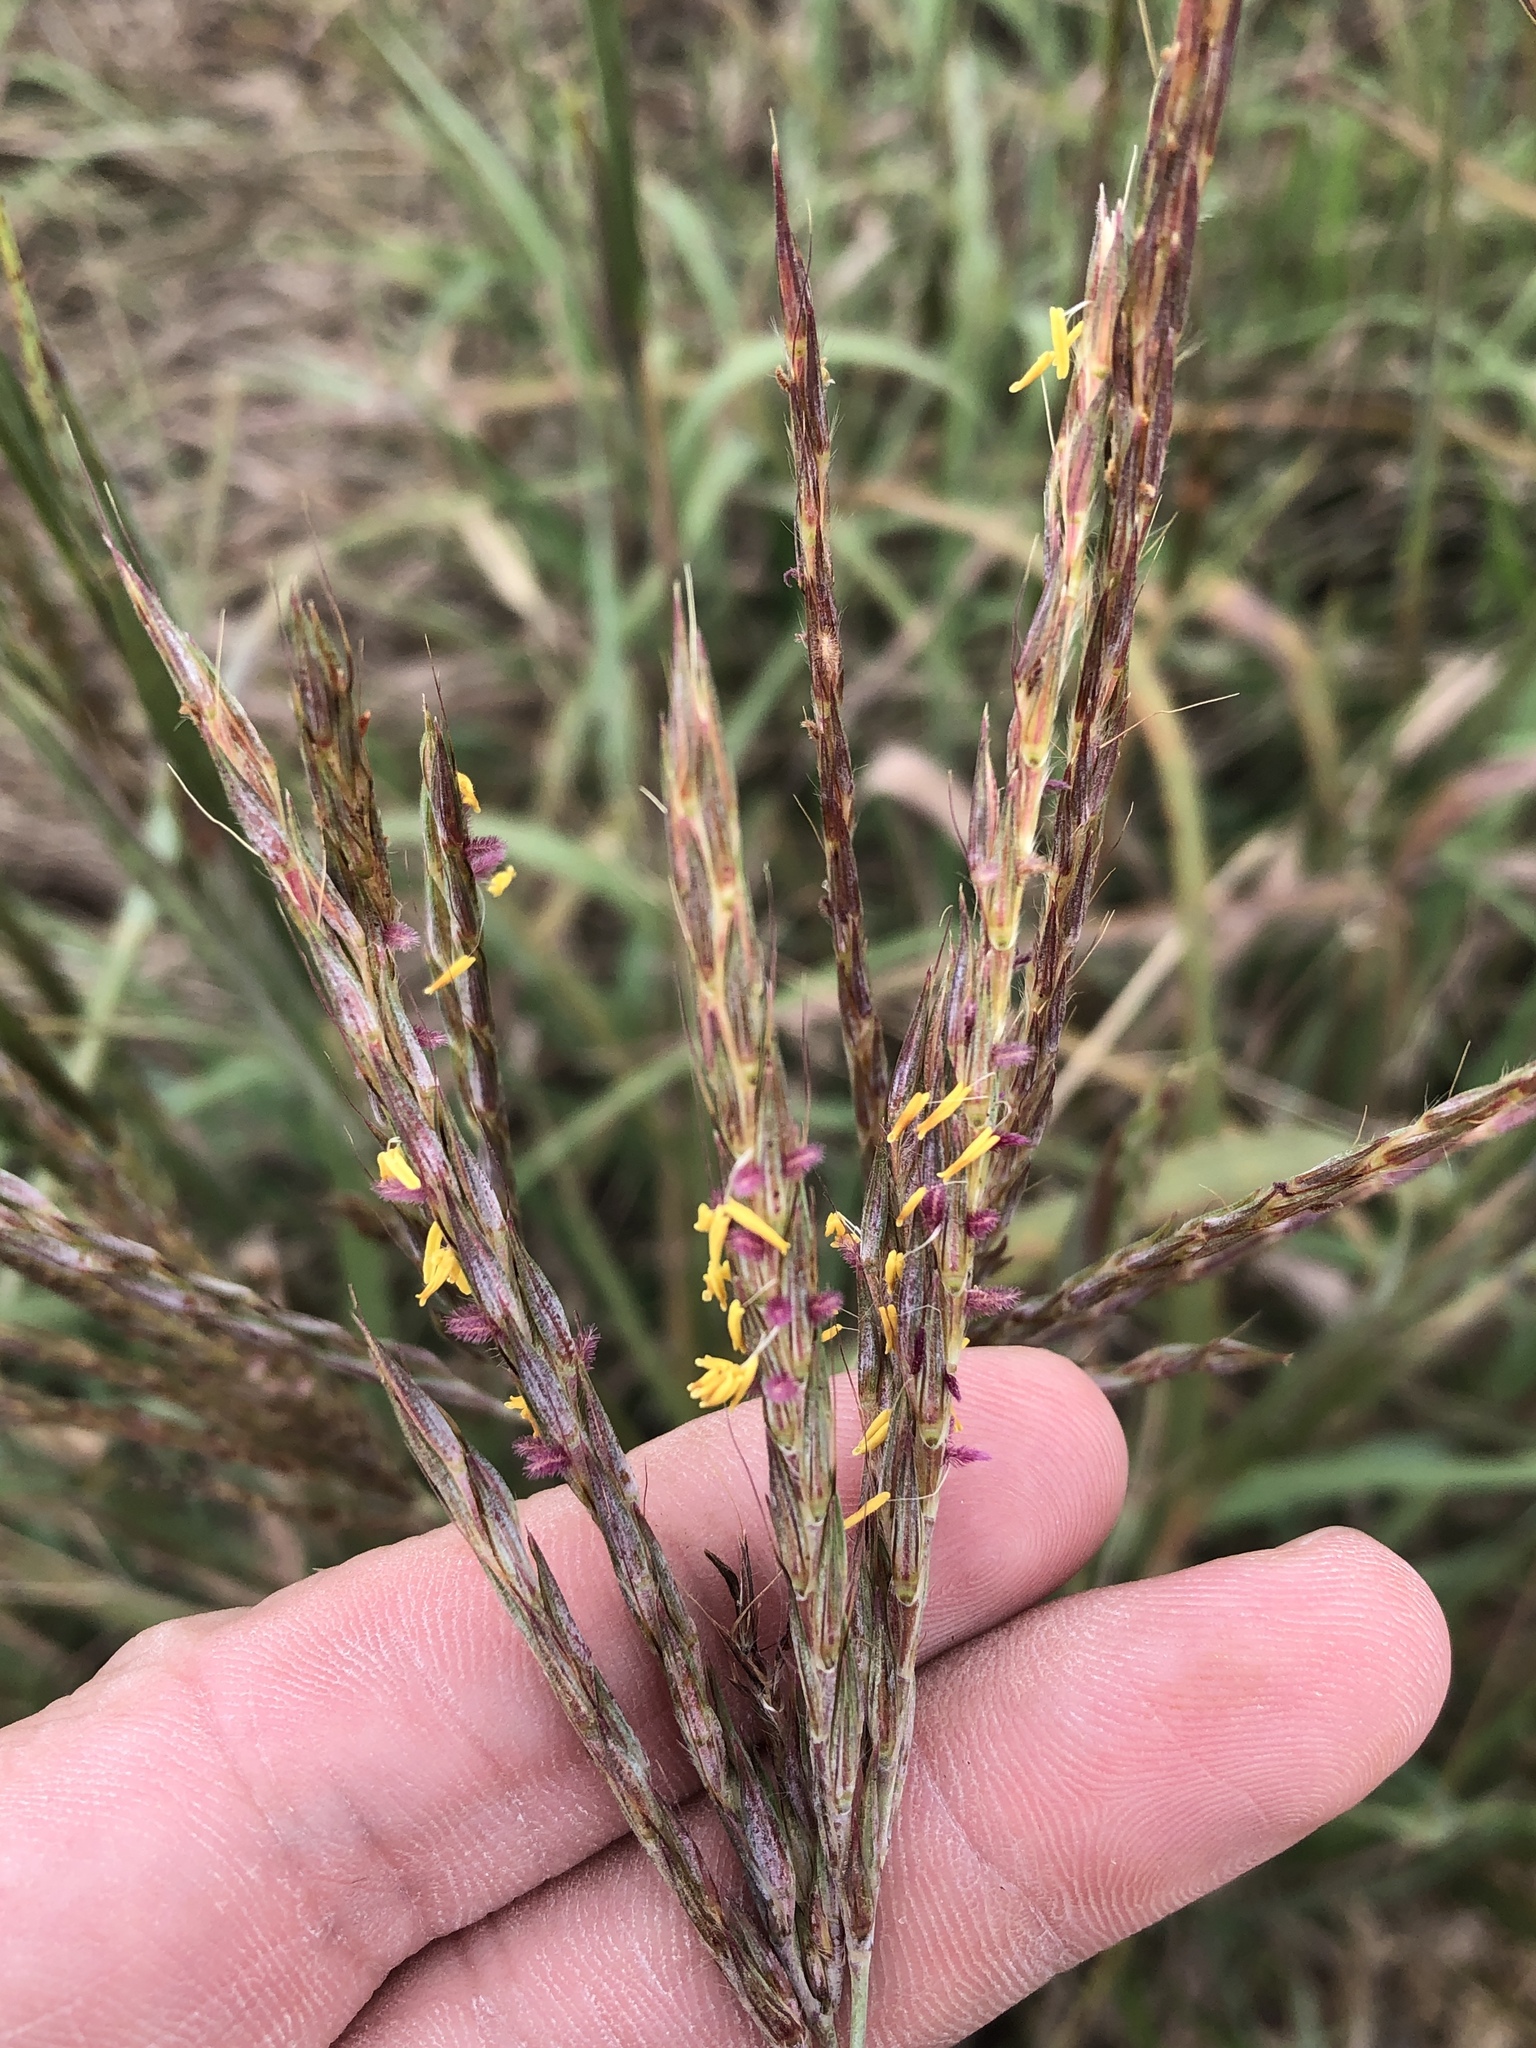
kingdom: Plantae
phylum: Tracheophyta
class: Liliopsida
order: Poales
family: Poaceae
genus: Andropogon
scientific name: Andropogon gerardi
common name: Big bluestem
